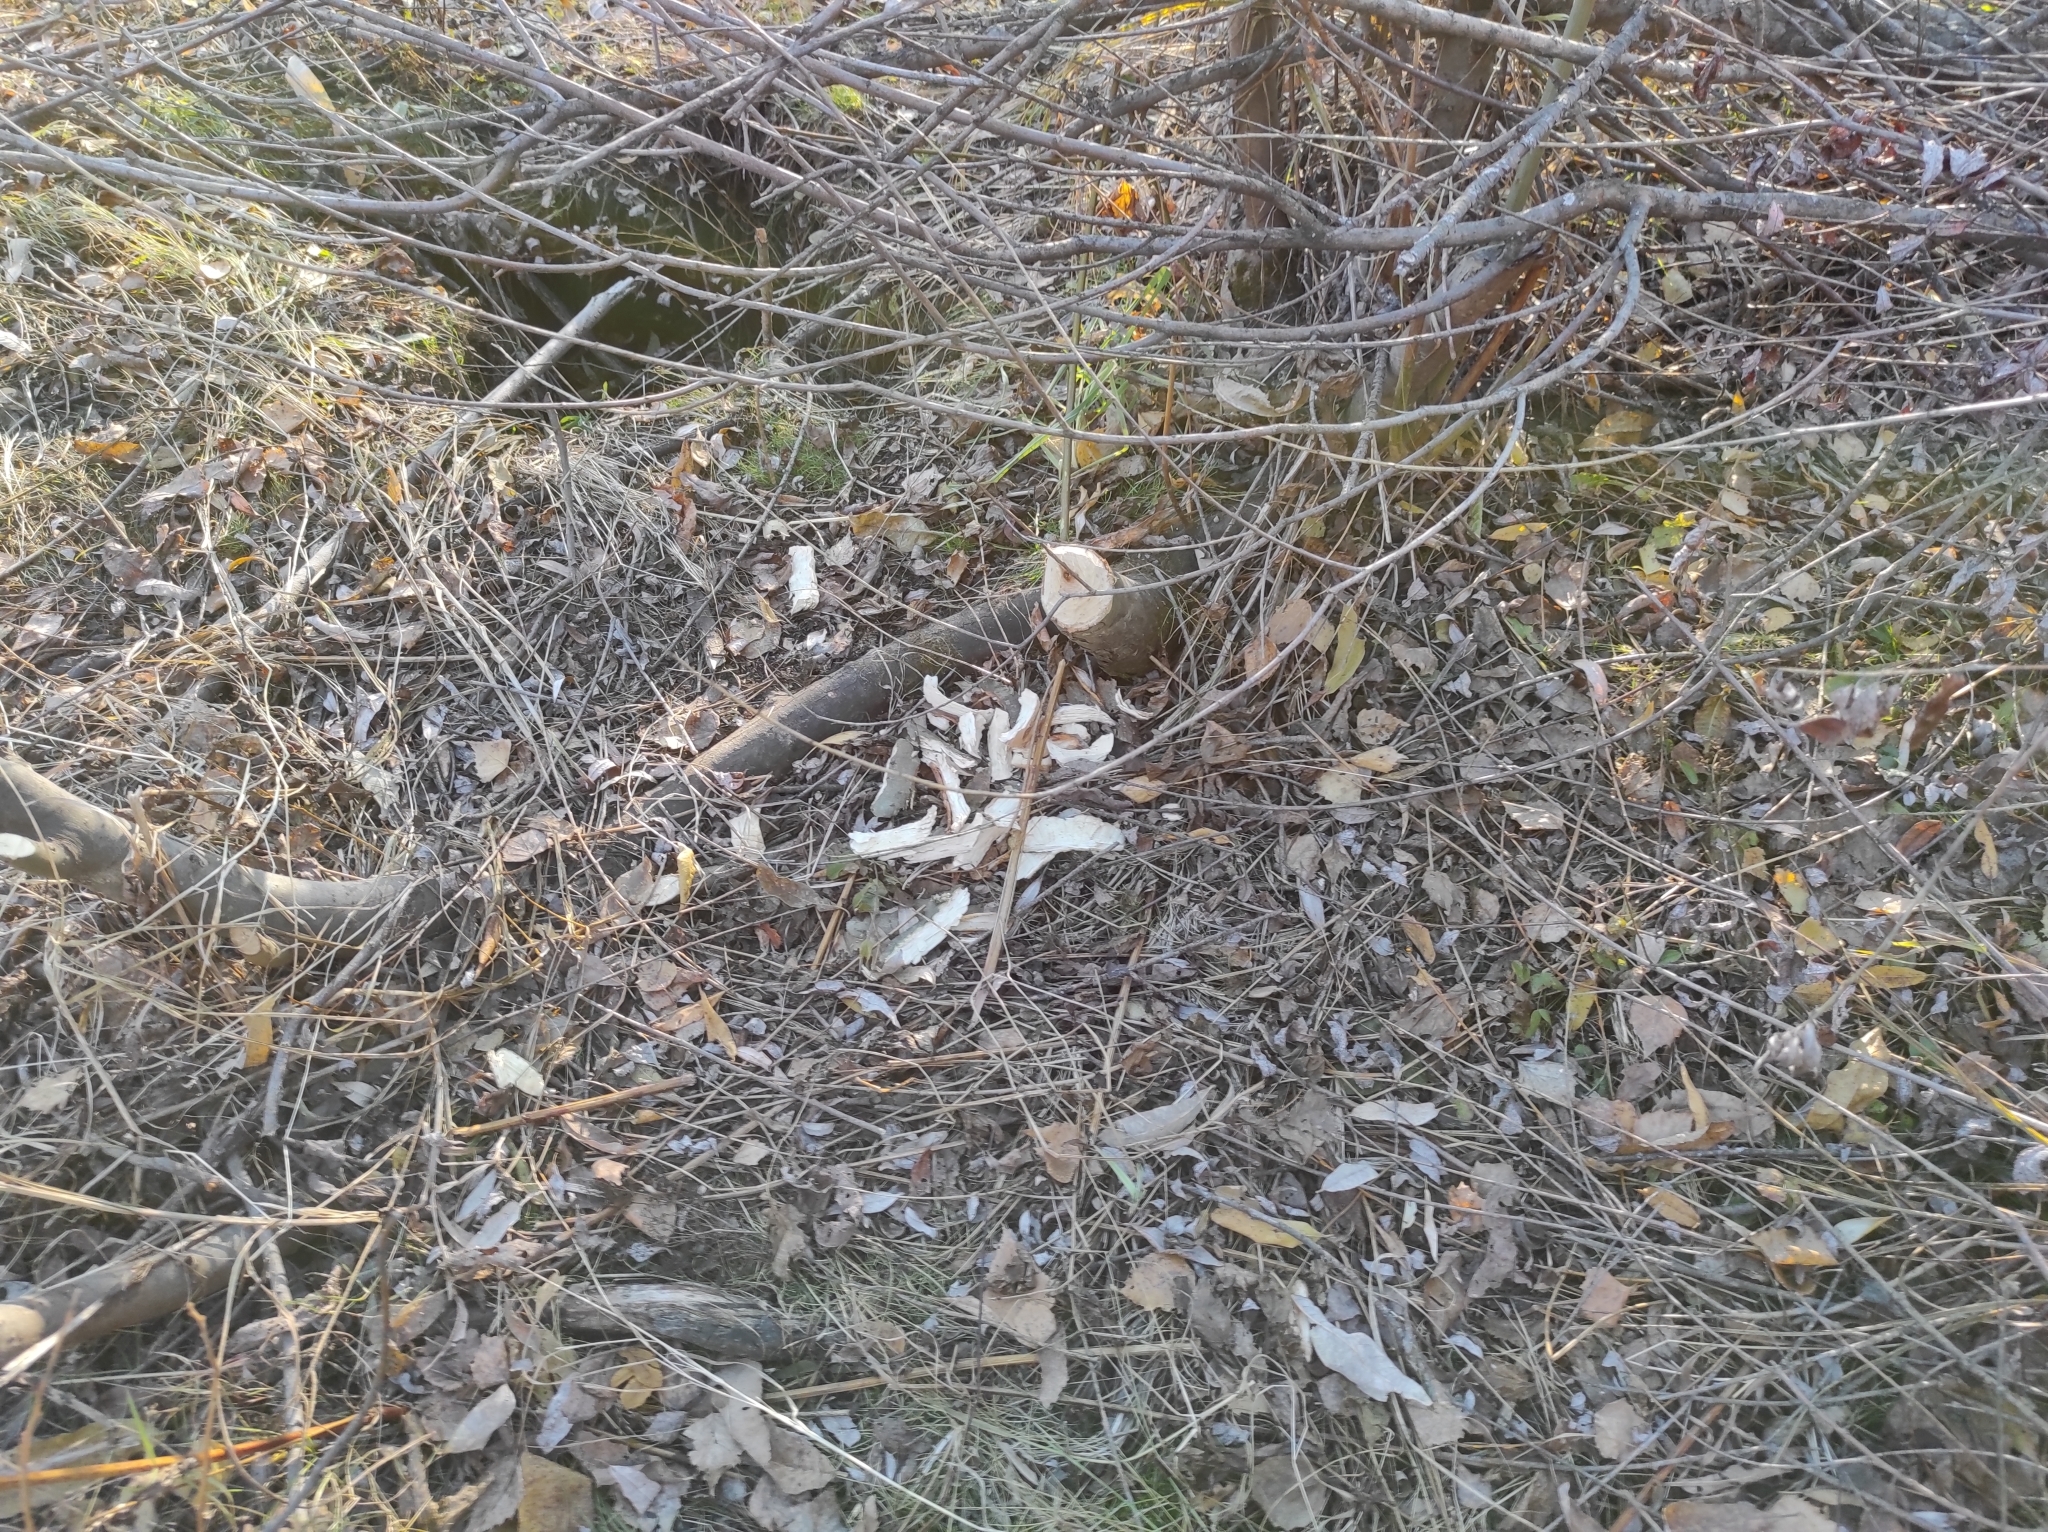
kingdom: Animalia
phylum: Chordata
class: Mammalia
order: Rodentia
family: Castoridae
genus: Castor
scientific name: Castor fiber
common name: Eurasian beaver
